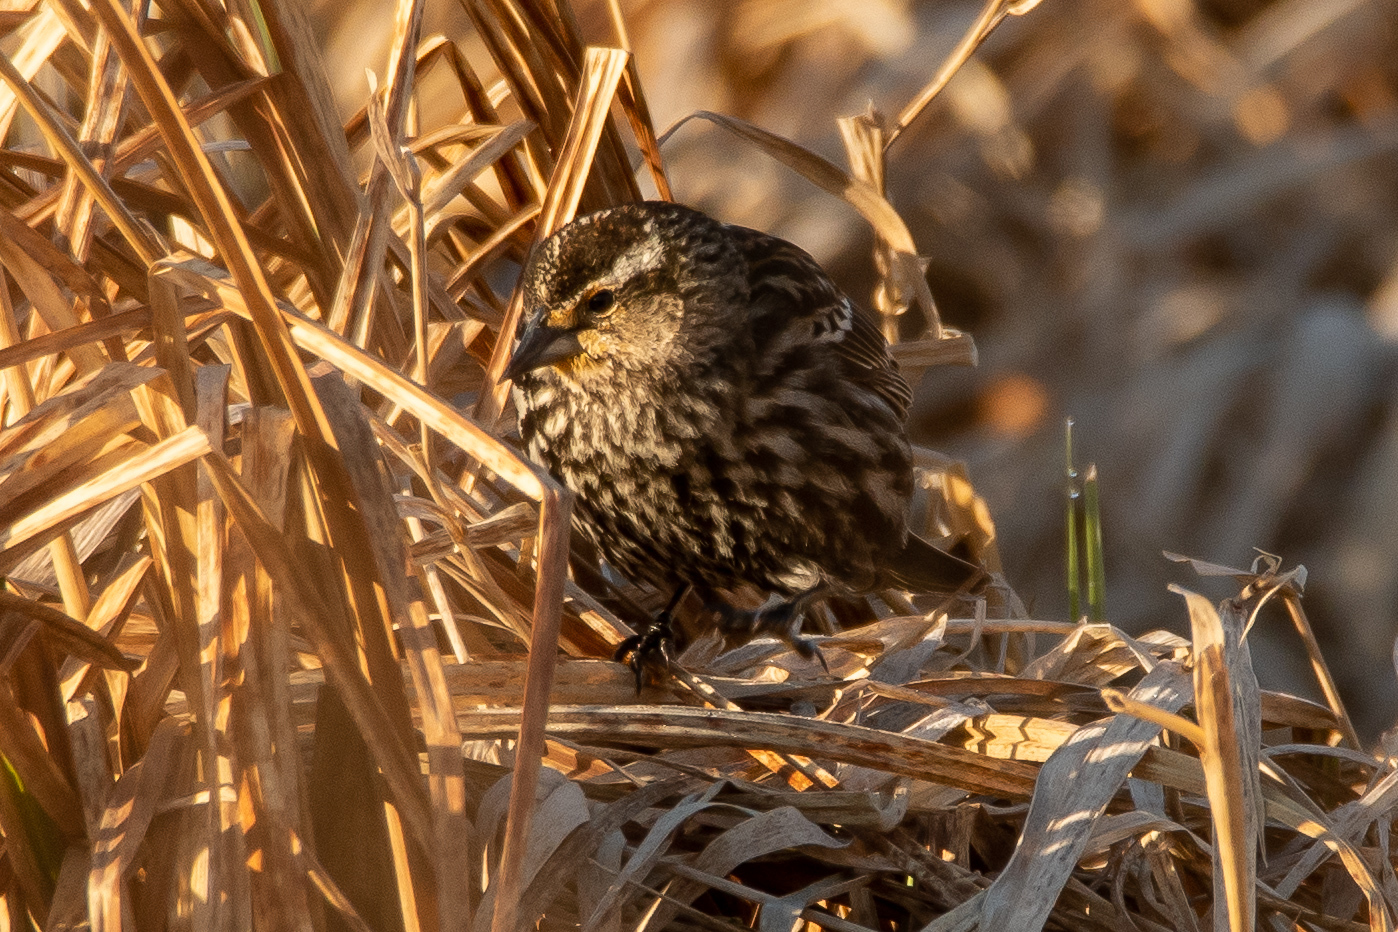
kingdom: Animalia
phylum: Chordata
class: Aves
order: Passeriformes
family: Icteridae
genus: Agelaius
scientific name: Agelaius phoeniceus
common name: Red-winged blackbird
